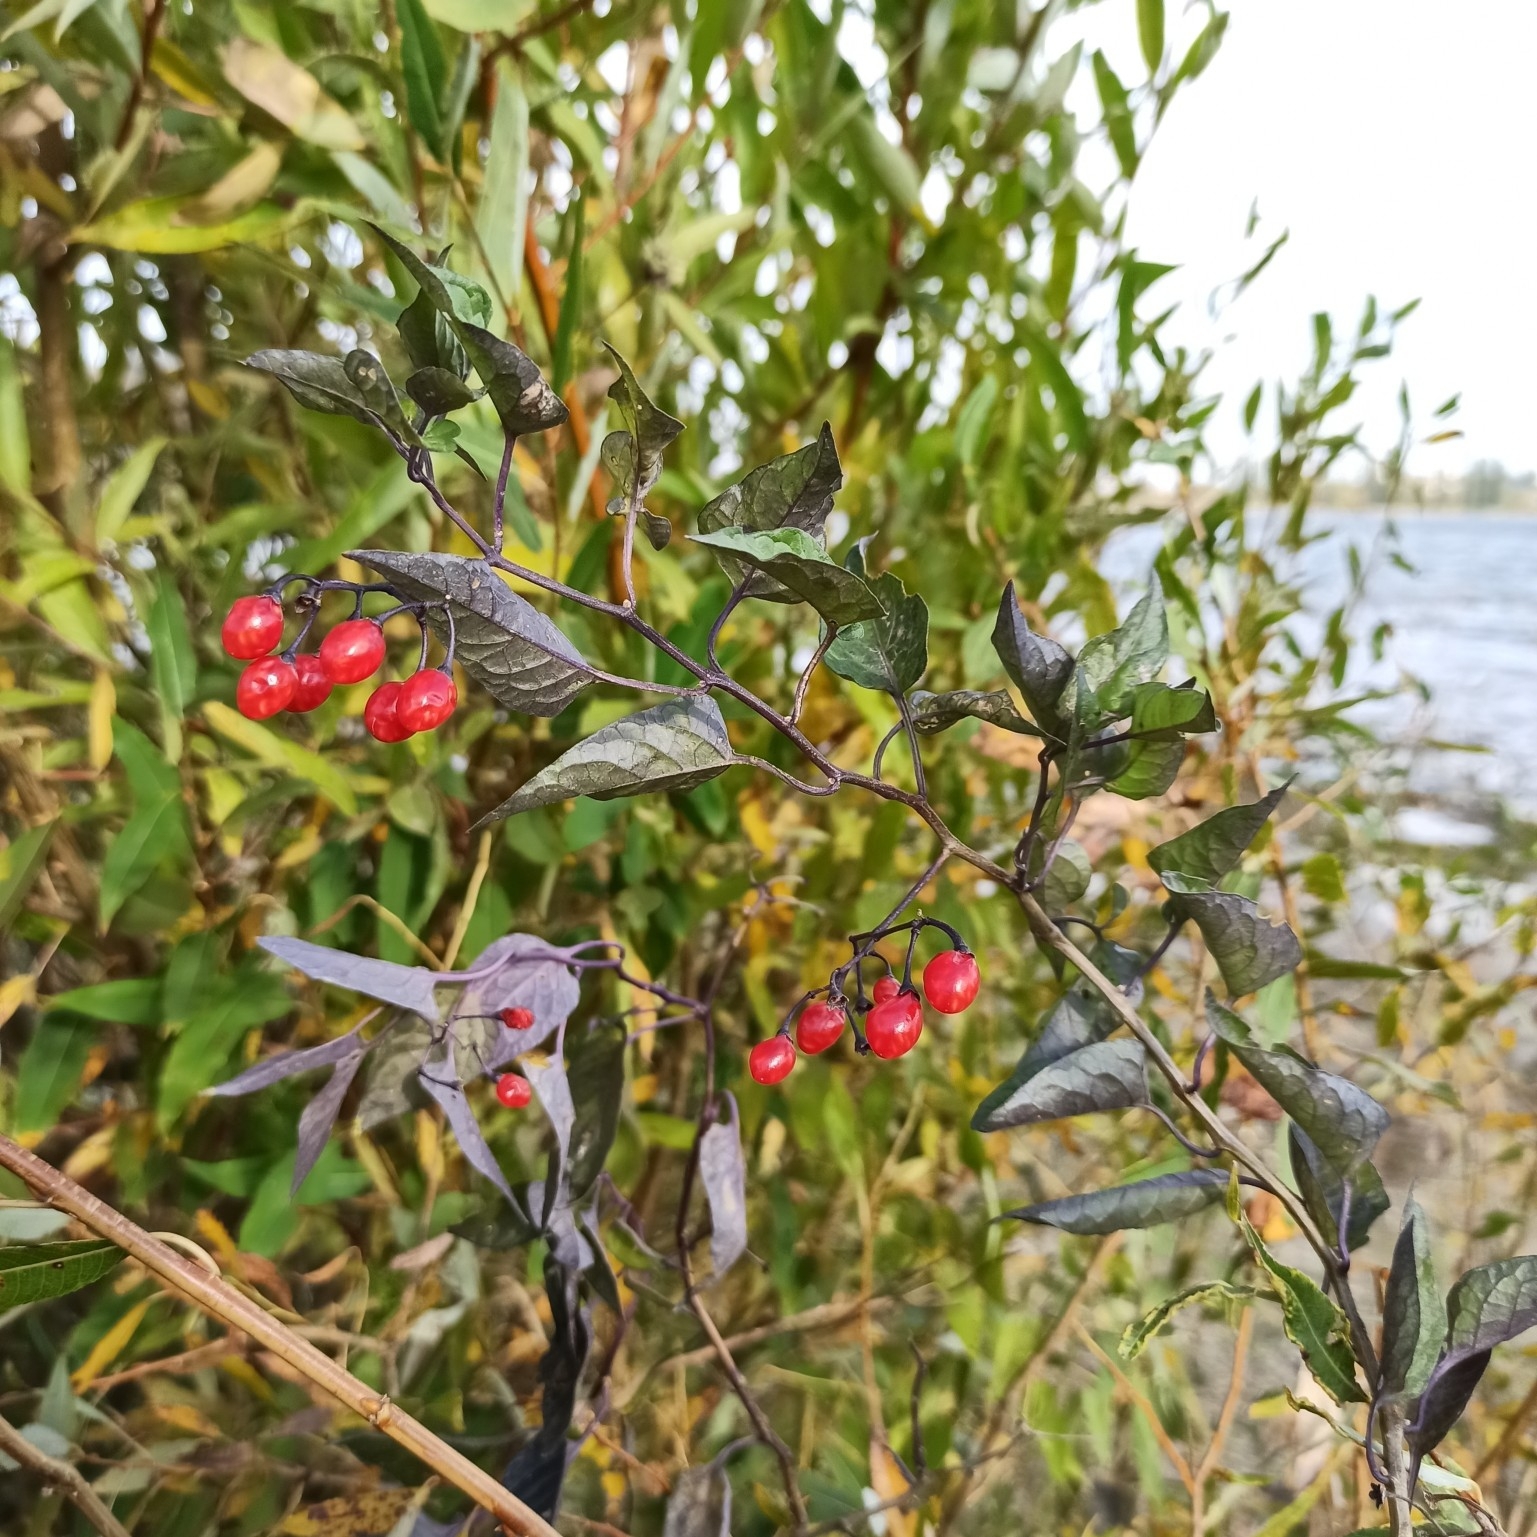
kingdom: Plantae
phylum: Tracheophyta
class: Magnoliopsida
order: Solanales
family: Solanaceae
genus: Solanum
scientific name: Solanum dulcamara
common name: Climbing nightshade
